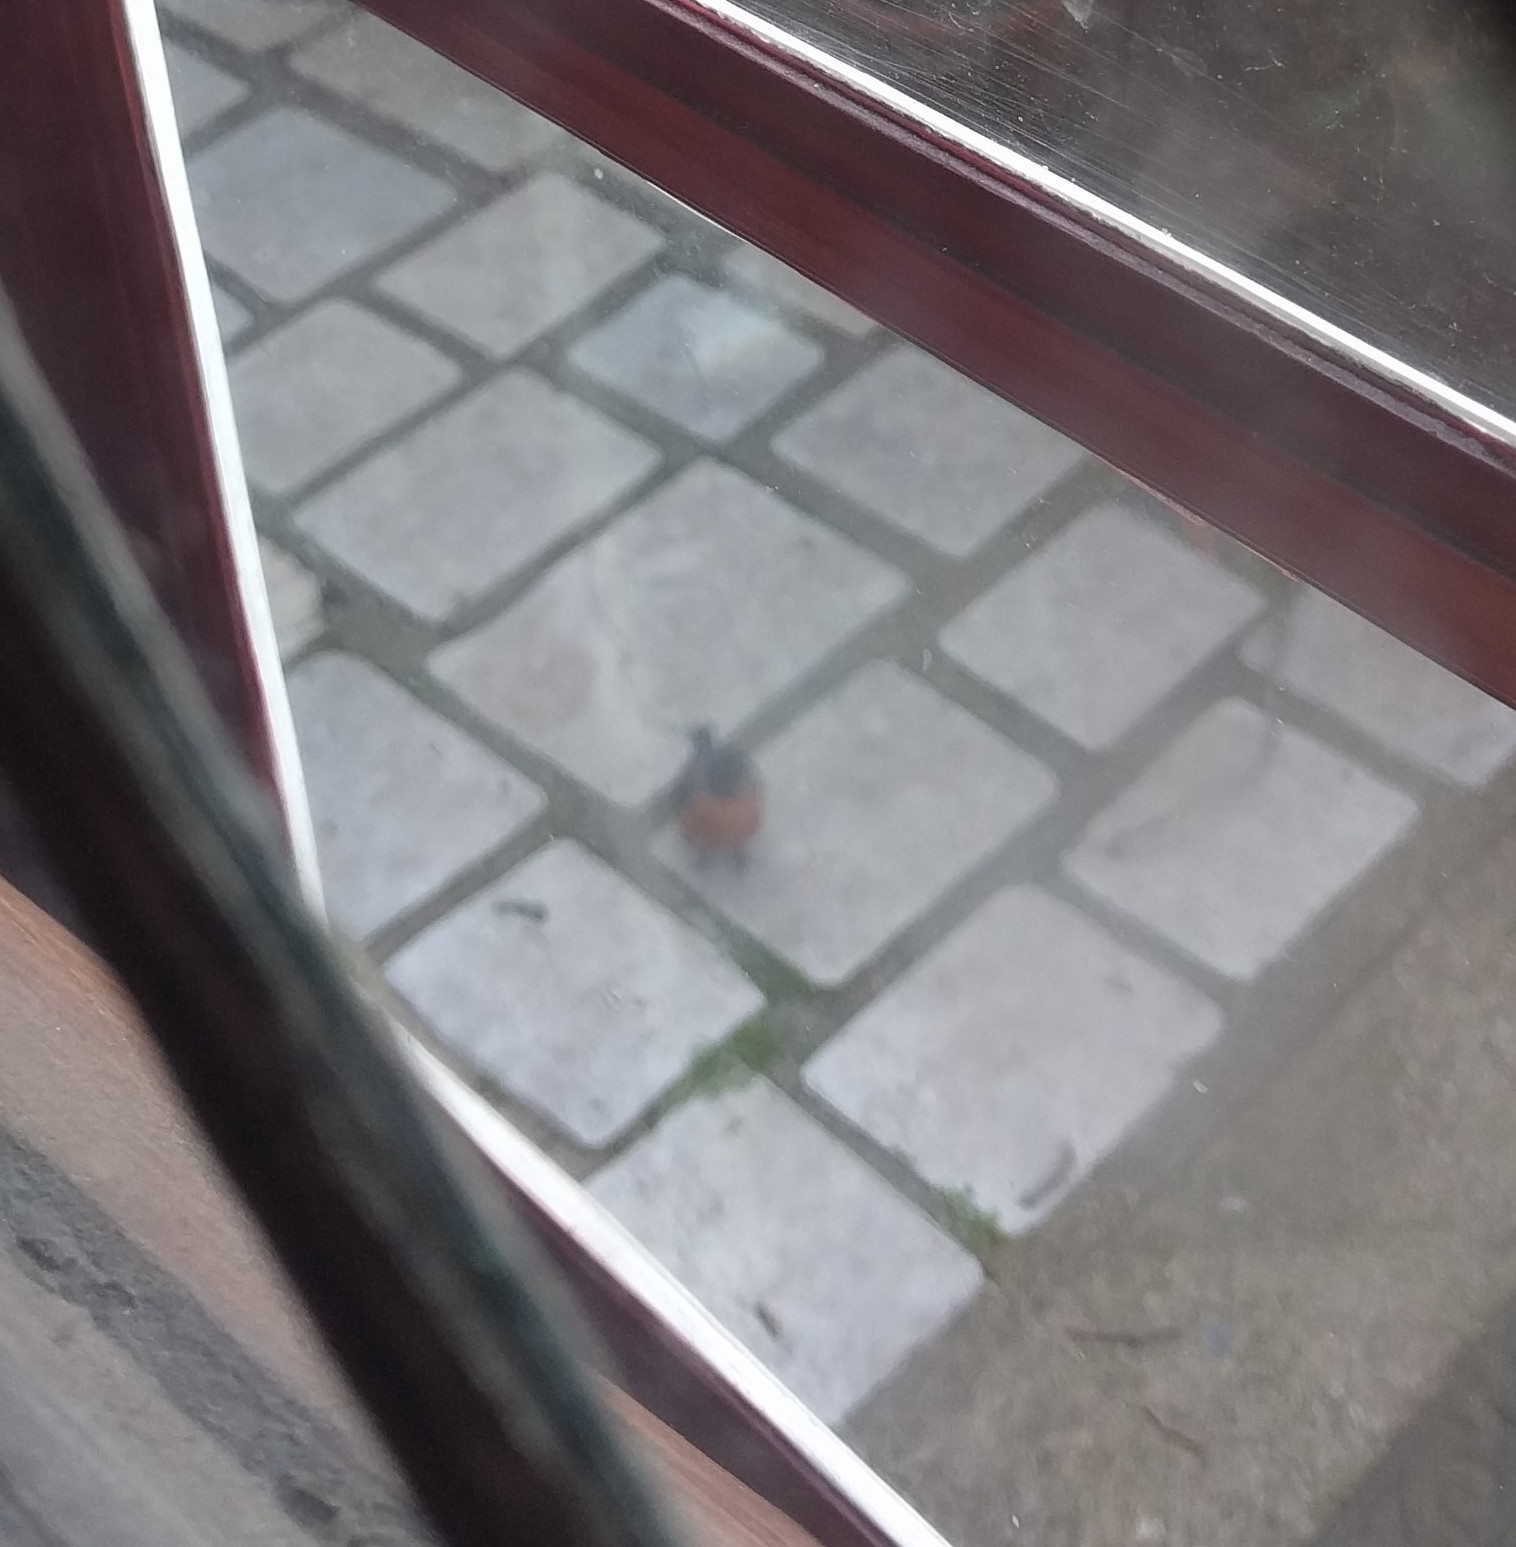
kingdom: Animalia
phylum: Chordata
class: Aves
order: Passeriformes
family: Turdidae
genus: Turdus
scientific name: Turdus migratorius
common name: American robin
